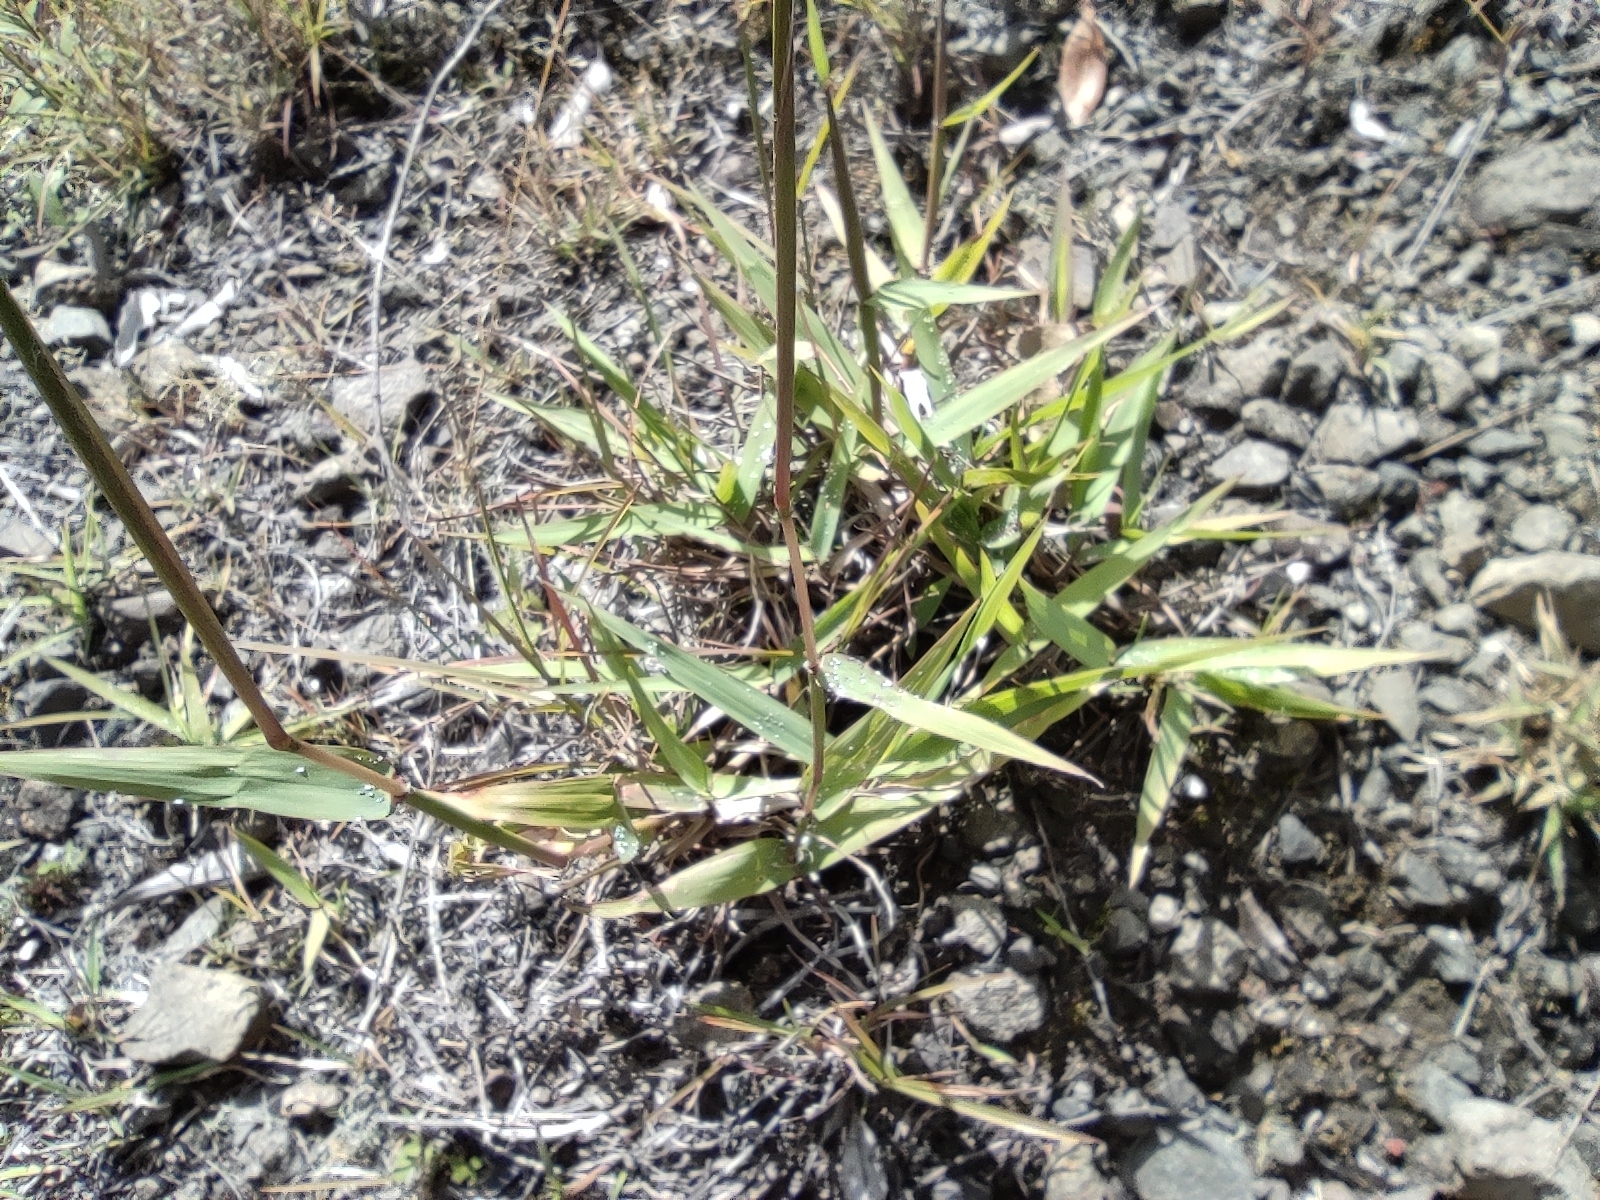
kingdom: Plantae
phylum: Tracheophyta
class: Liliopsida
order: Poales
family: Poaceae
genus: Eulalia
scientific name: Eulalia aurea
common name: Silky browntop
